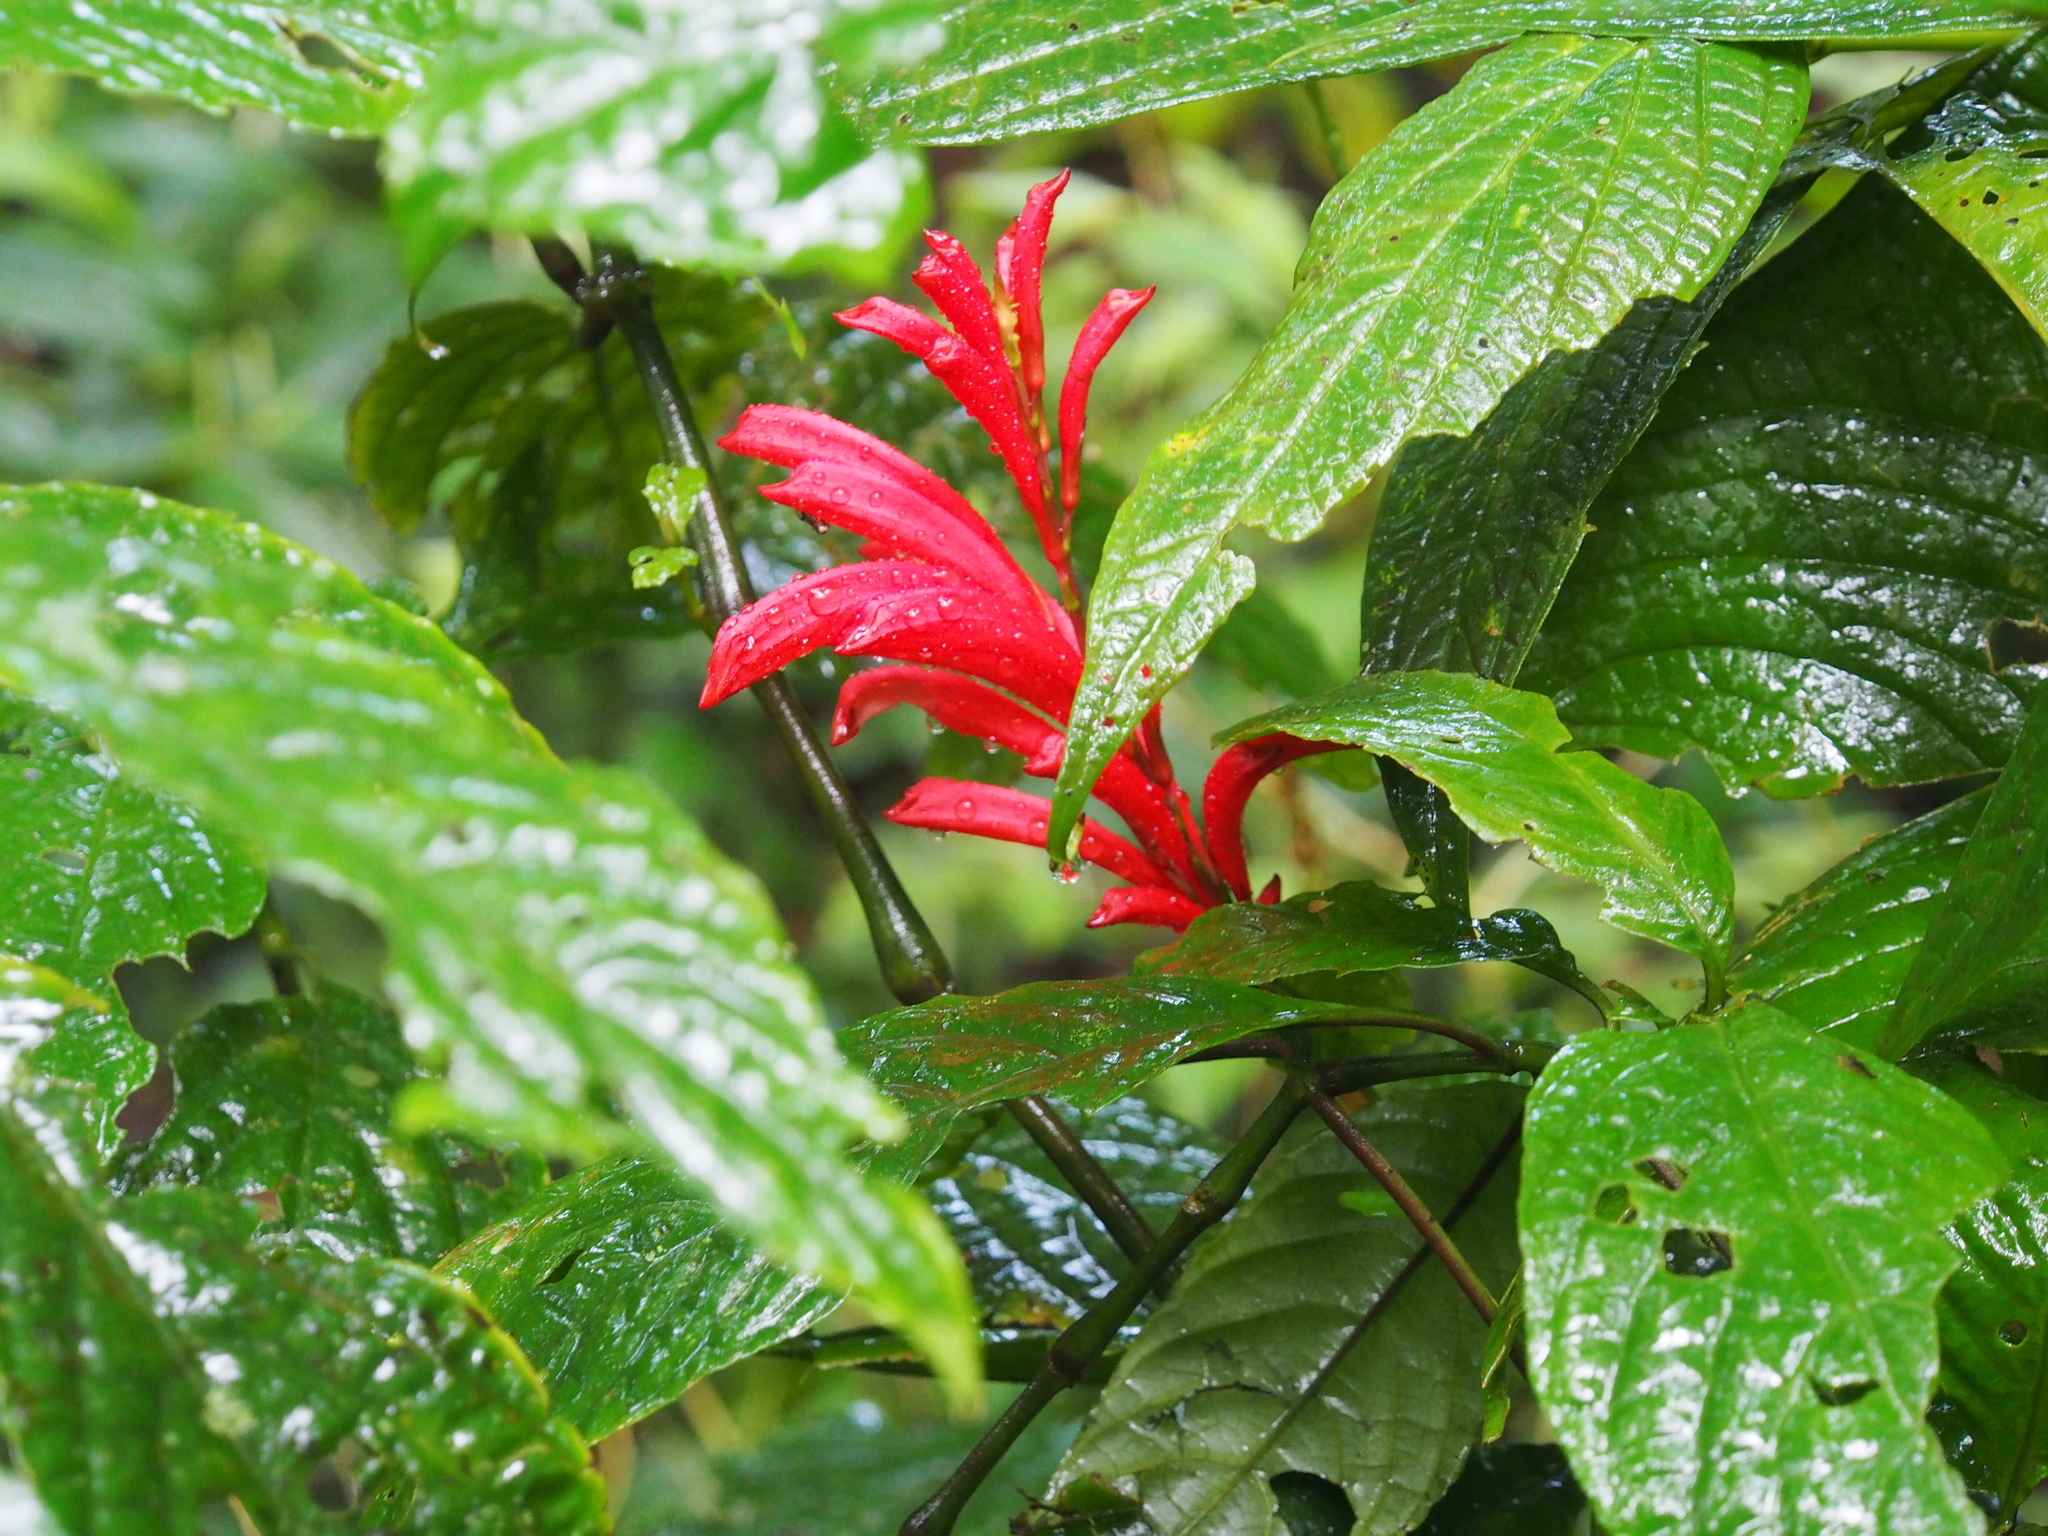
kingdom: Plantae
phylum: Tracheophyta
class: Magnoliopsida
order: Lamiales
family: Acanthaceae
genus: Stenostephanus
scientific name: Stenostephanus leiorhachis
